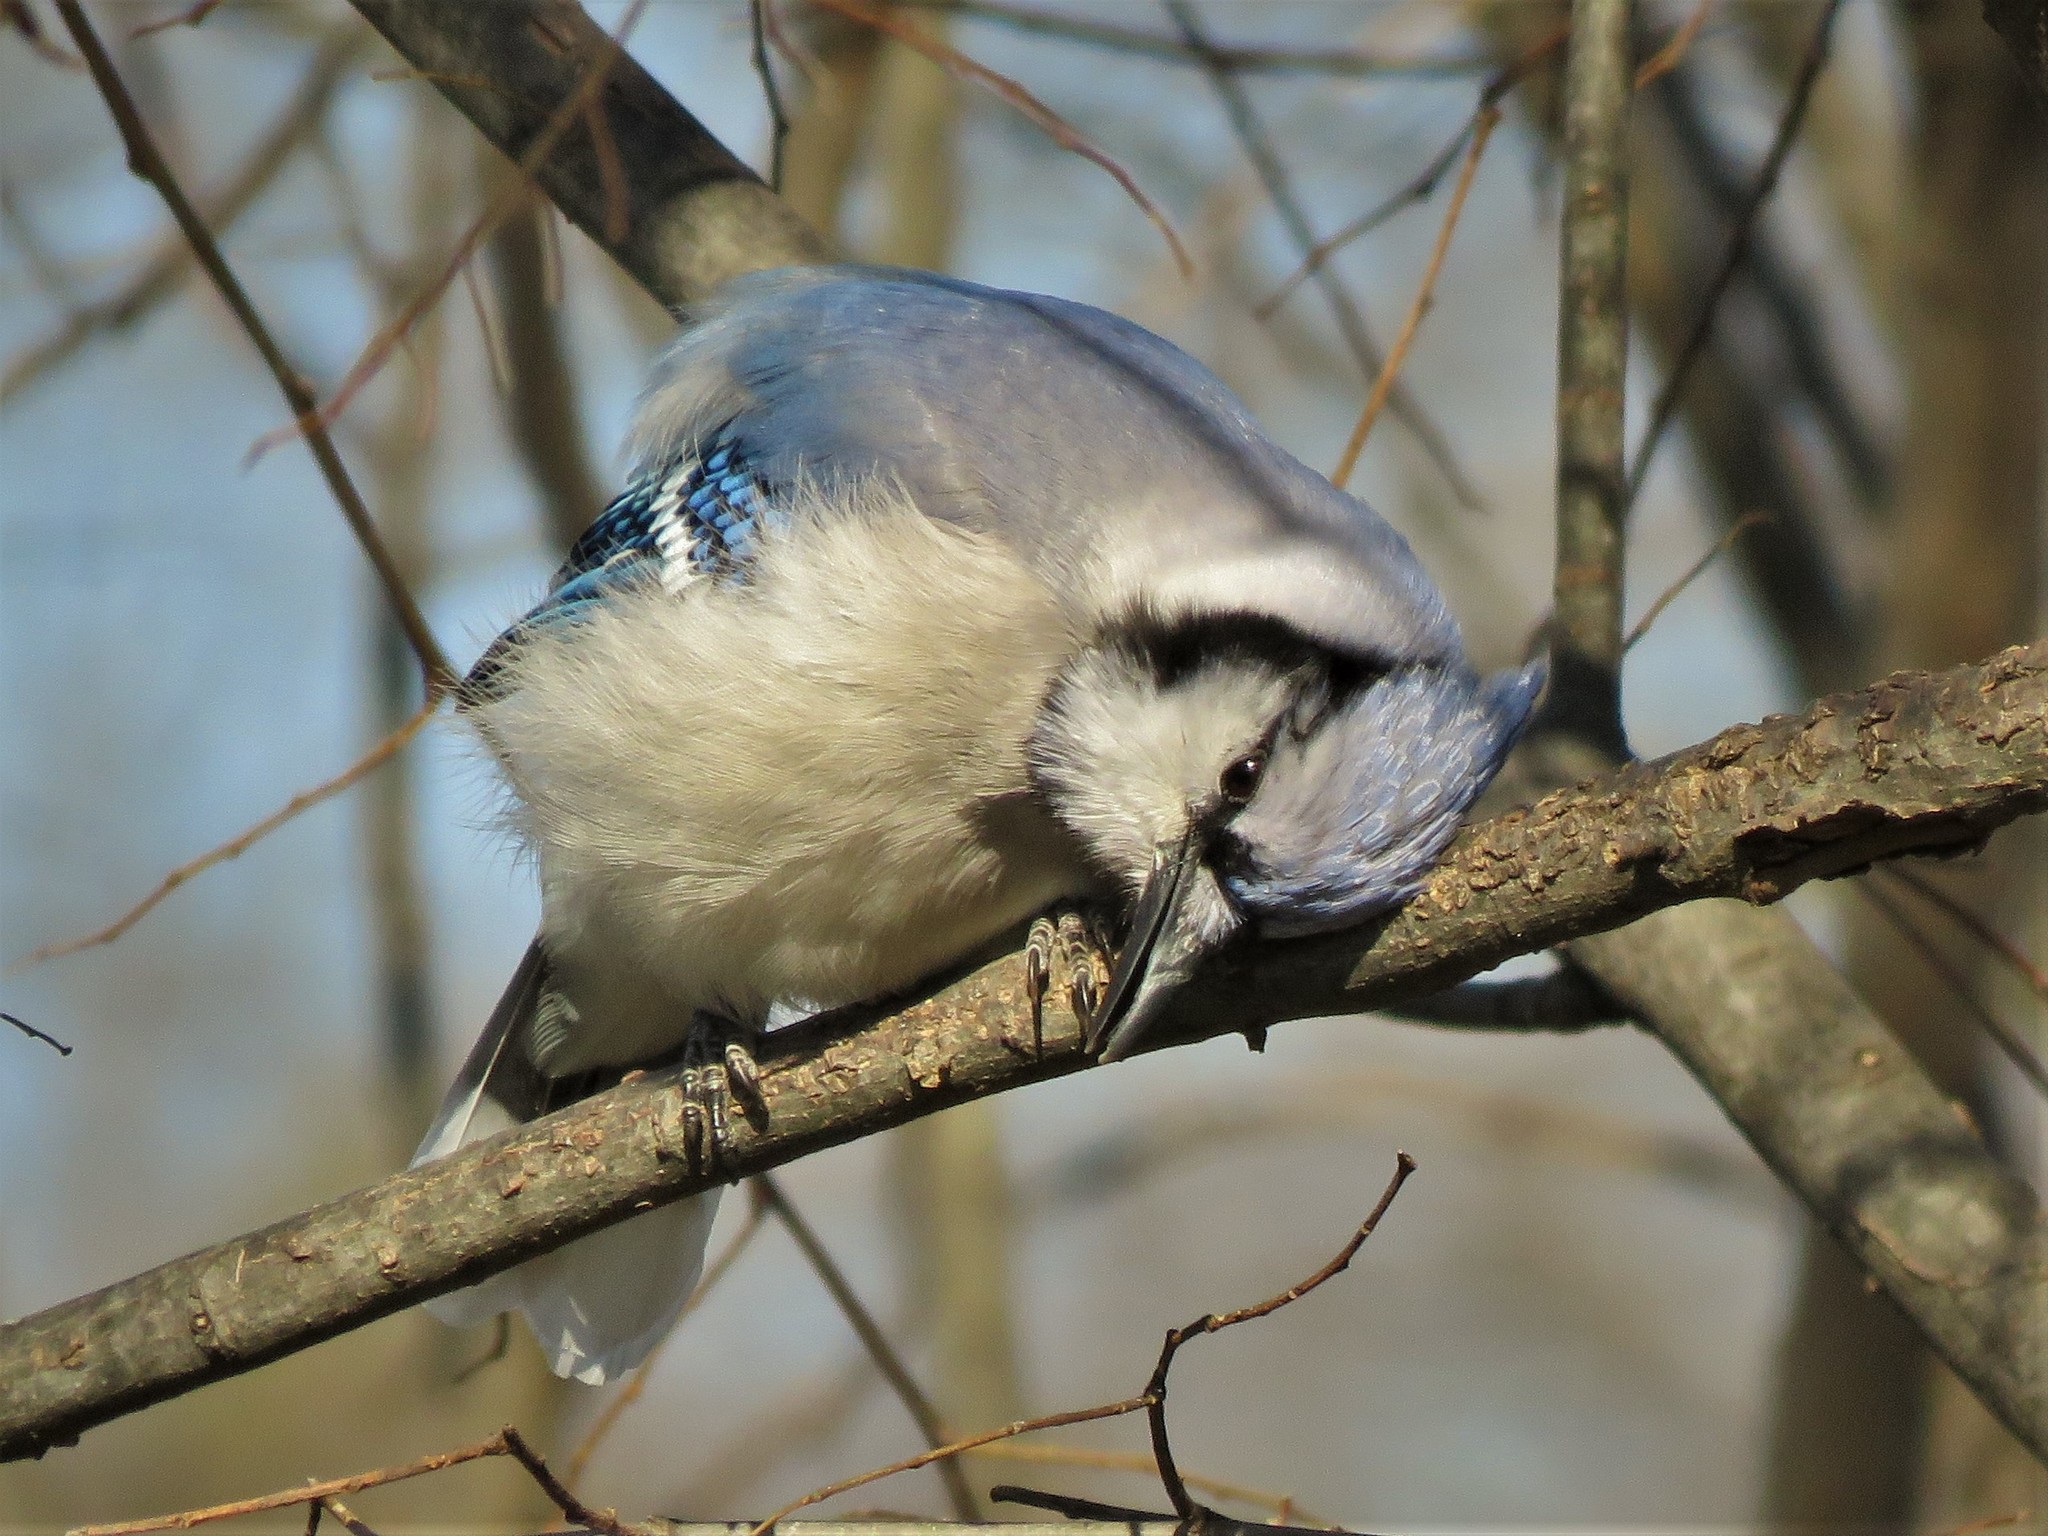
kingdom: Animalia
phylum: Chordata
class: Aves
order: Passeriformes
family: Corvidae
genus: Cyanocitta
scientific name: Cyanocitta cristata
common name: Blue jay
